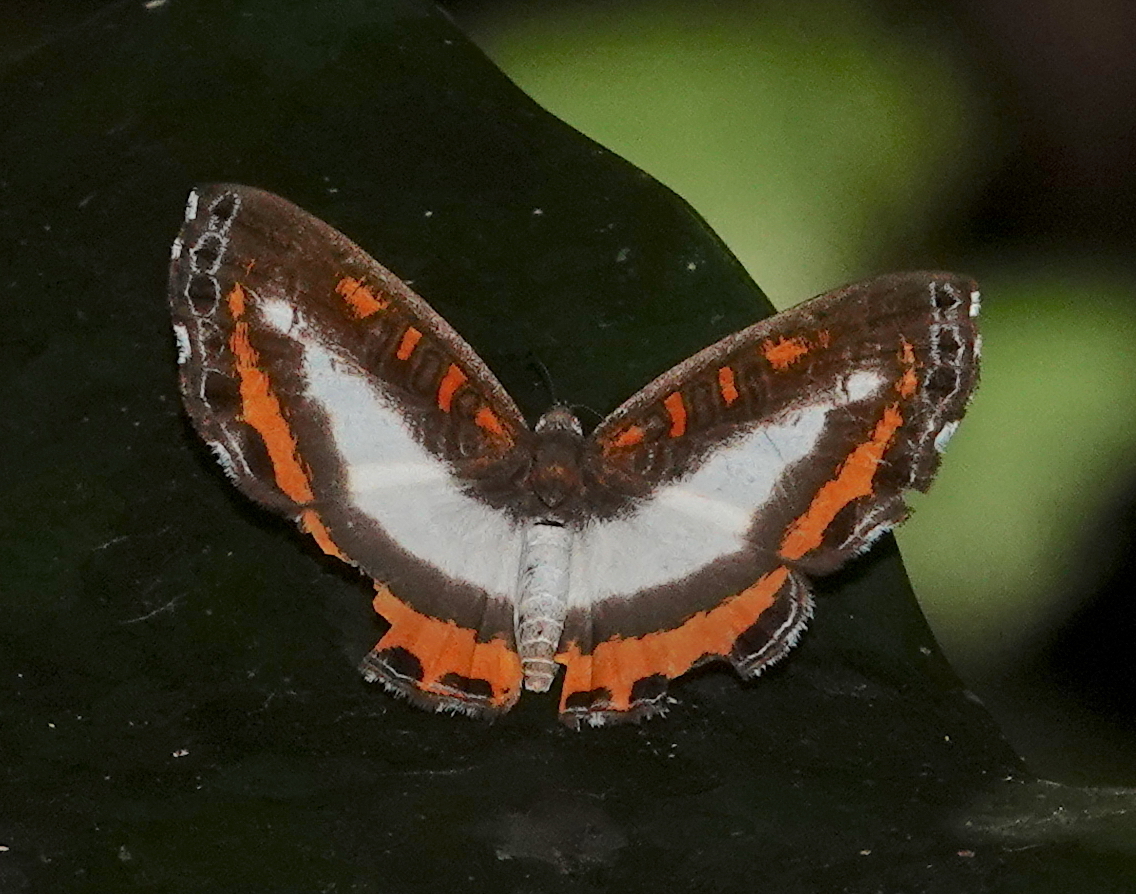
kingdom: Animalia
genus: Nymphidium
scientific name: Nymphidium lisimon
